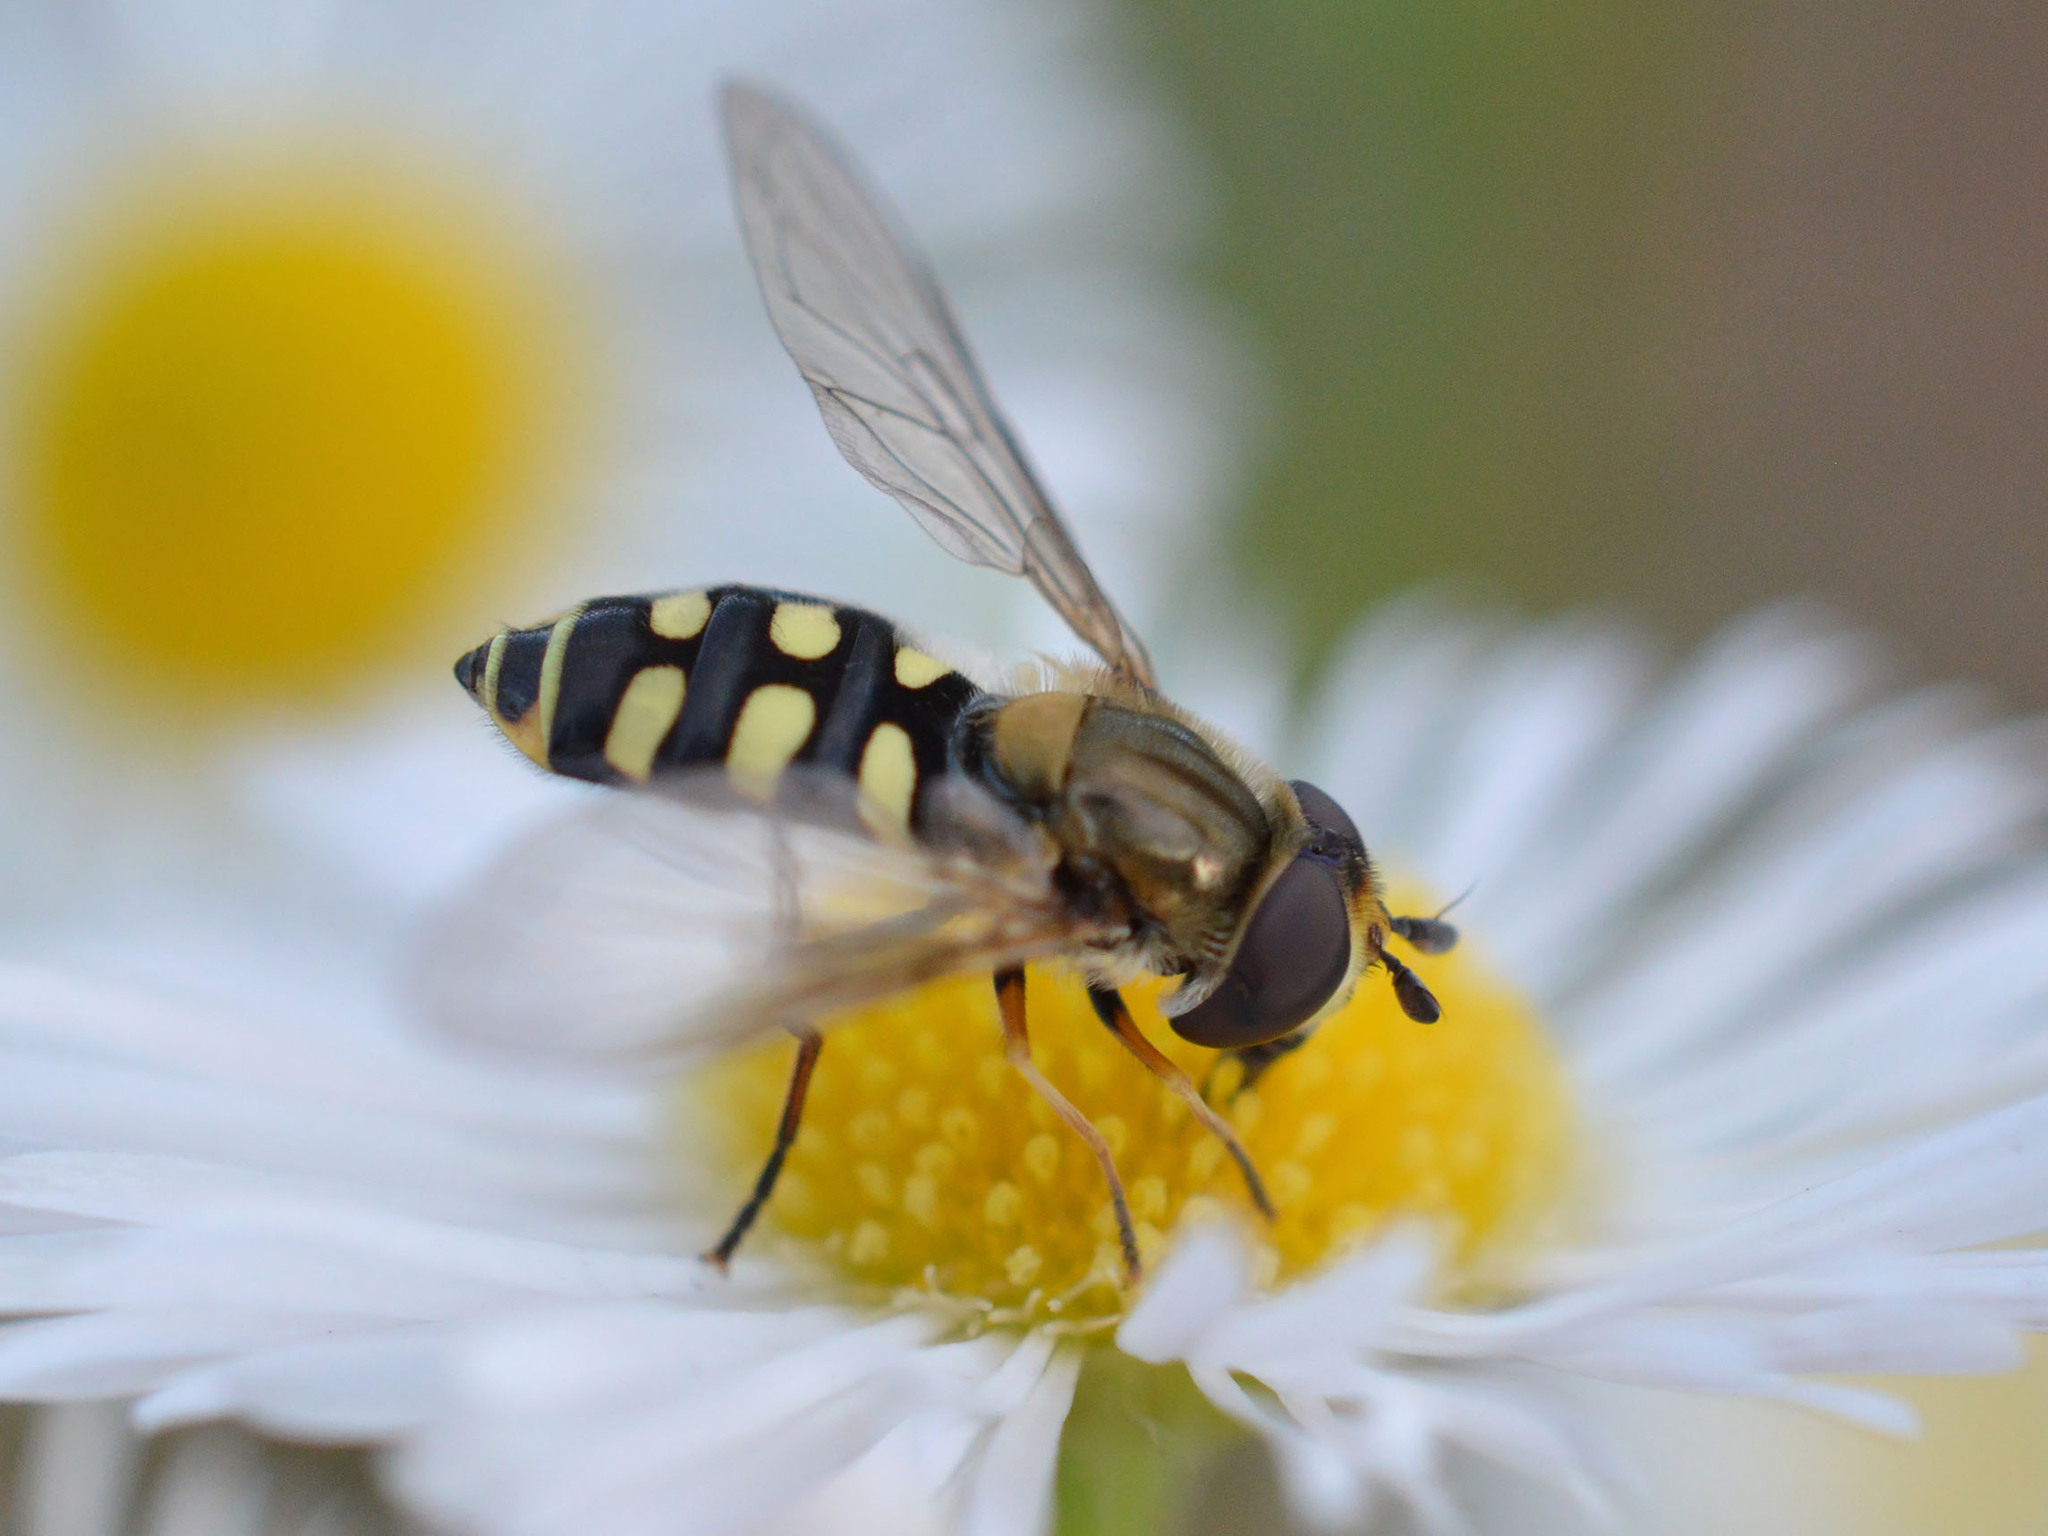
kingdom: Animalia
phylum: Arthropoda
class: Insecta
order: Diptera
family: Syrphidae
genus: Eupeodes
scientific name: Eupeodes corollae
